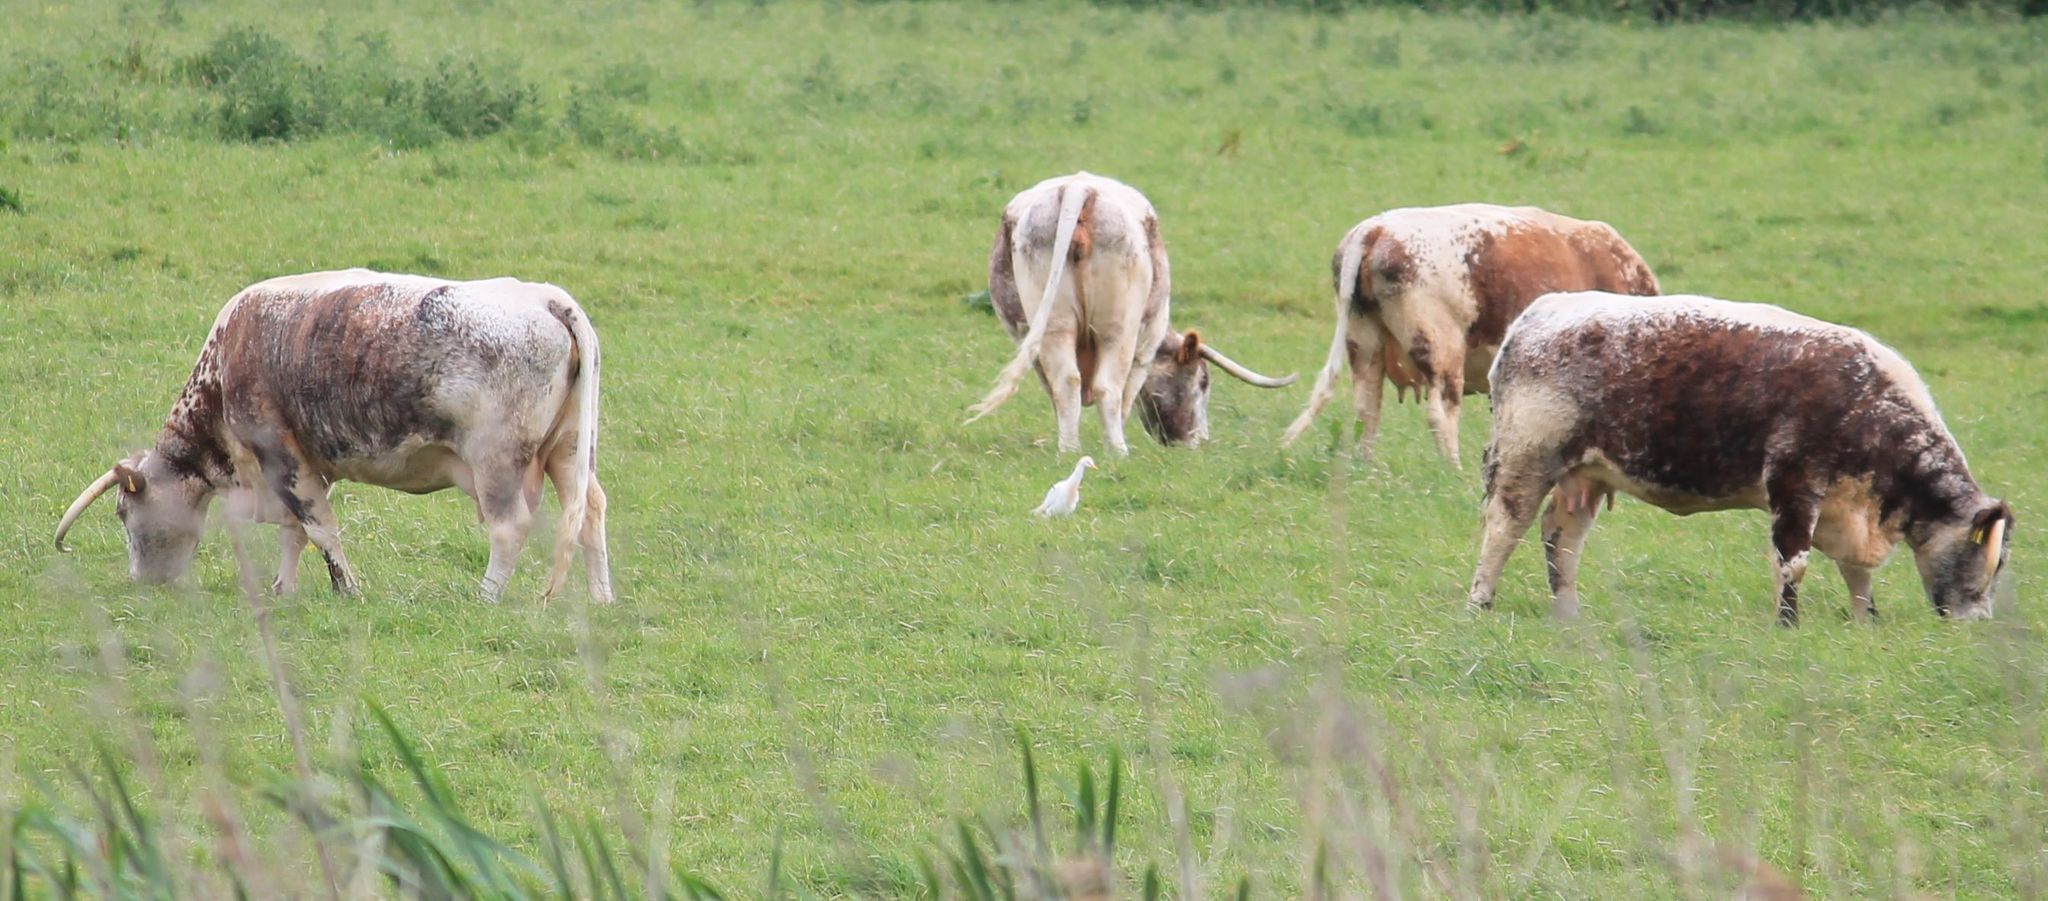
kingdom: Animalia
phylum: Chordata
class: Aves
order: Pelecaniformes
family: Ardeidae
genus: Bubulcus
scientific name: Bubulcus ibis
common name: Cattle egret
